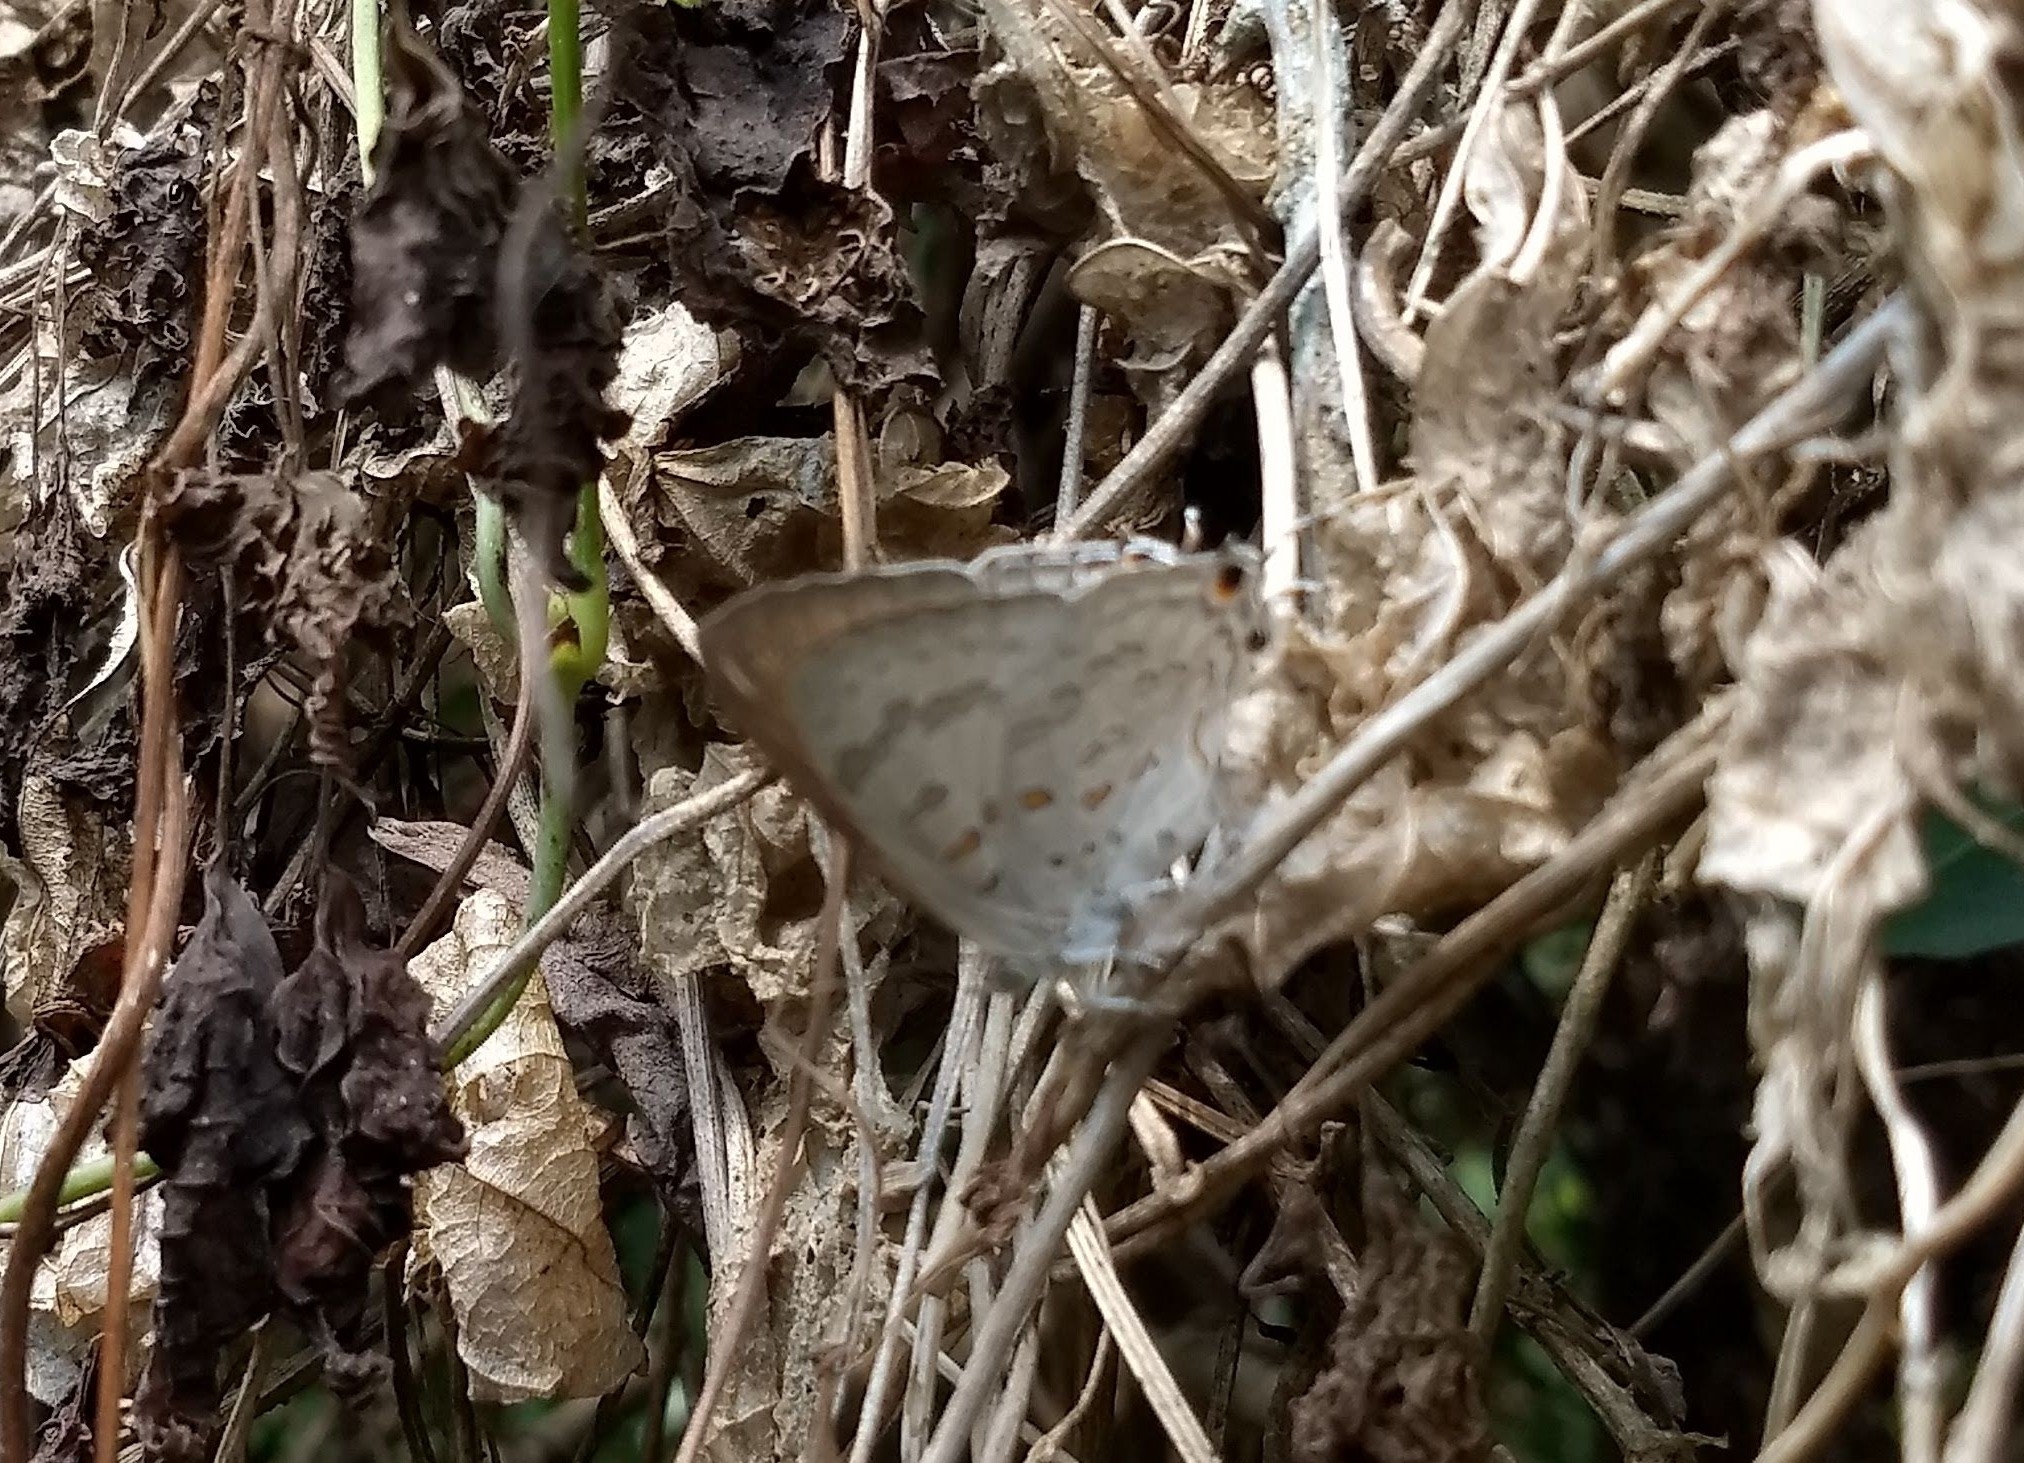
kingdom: Animalia
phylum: Arthropoda
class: Insecta
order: Lepidoptera
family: Lycaenidae
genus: Zesius
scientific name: Zesius chrysomallus
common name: Redspot
